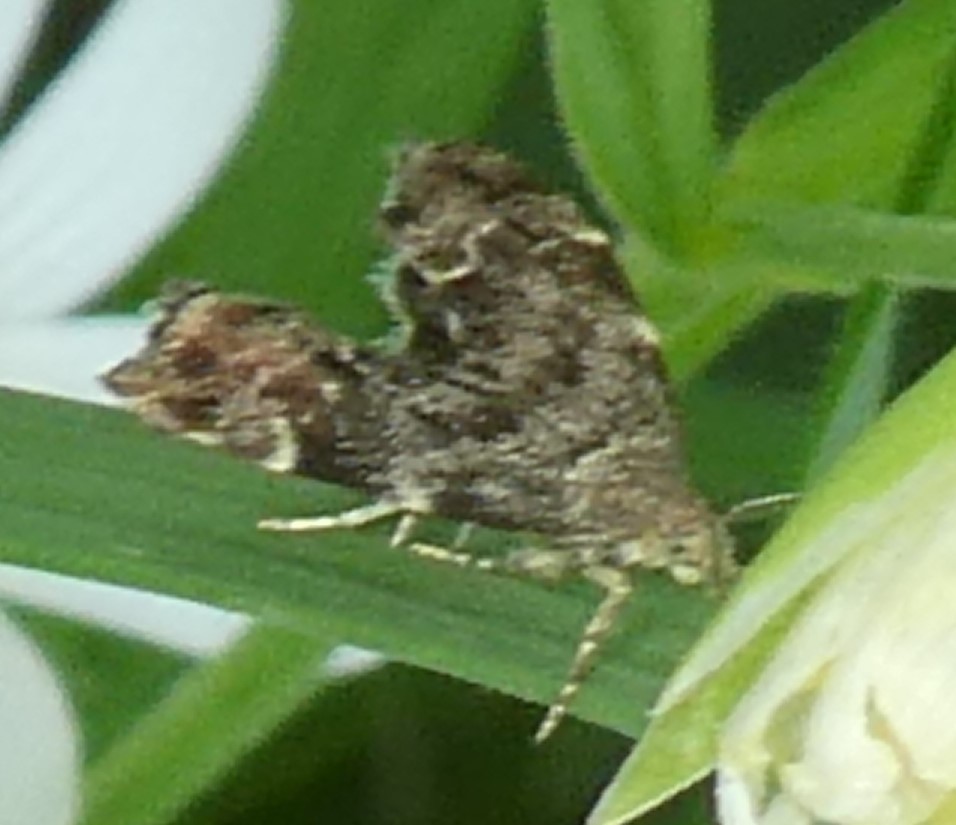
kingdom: Animalia
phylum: Arthropoda
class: Insecta
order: Lepidoptera
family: Choreutidae
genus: Anthophila
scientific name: Anthophila fabriciana
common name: Nettle-tap
